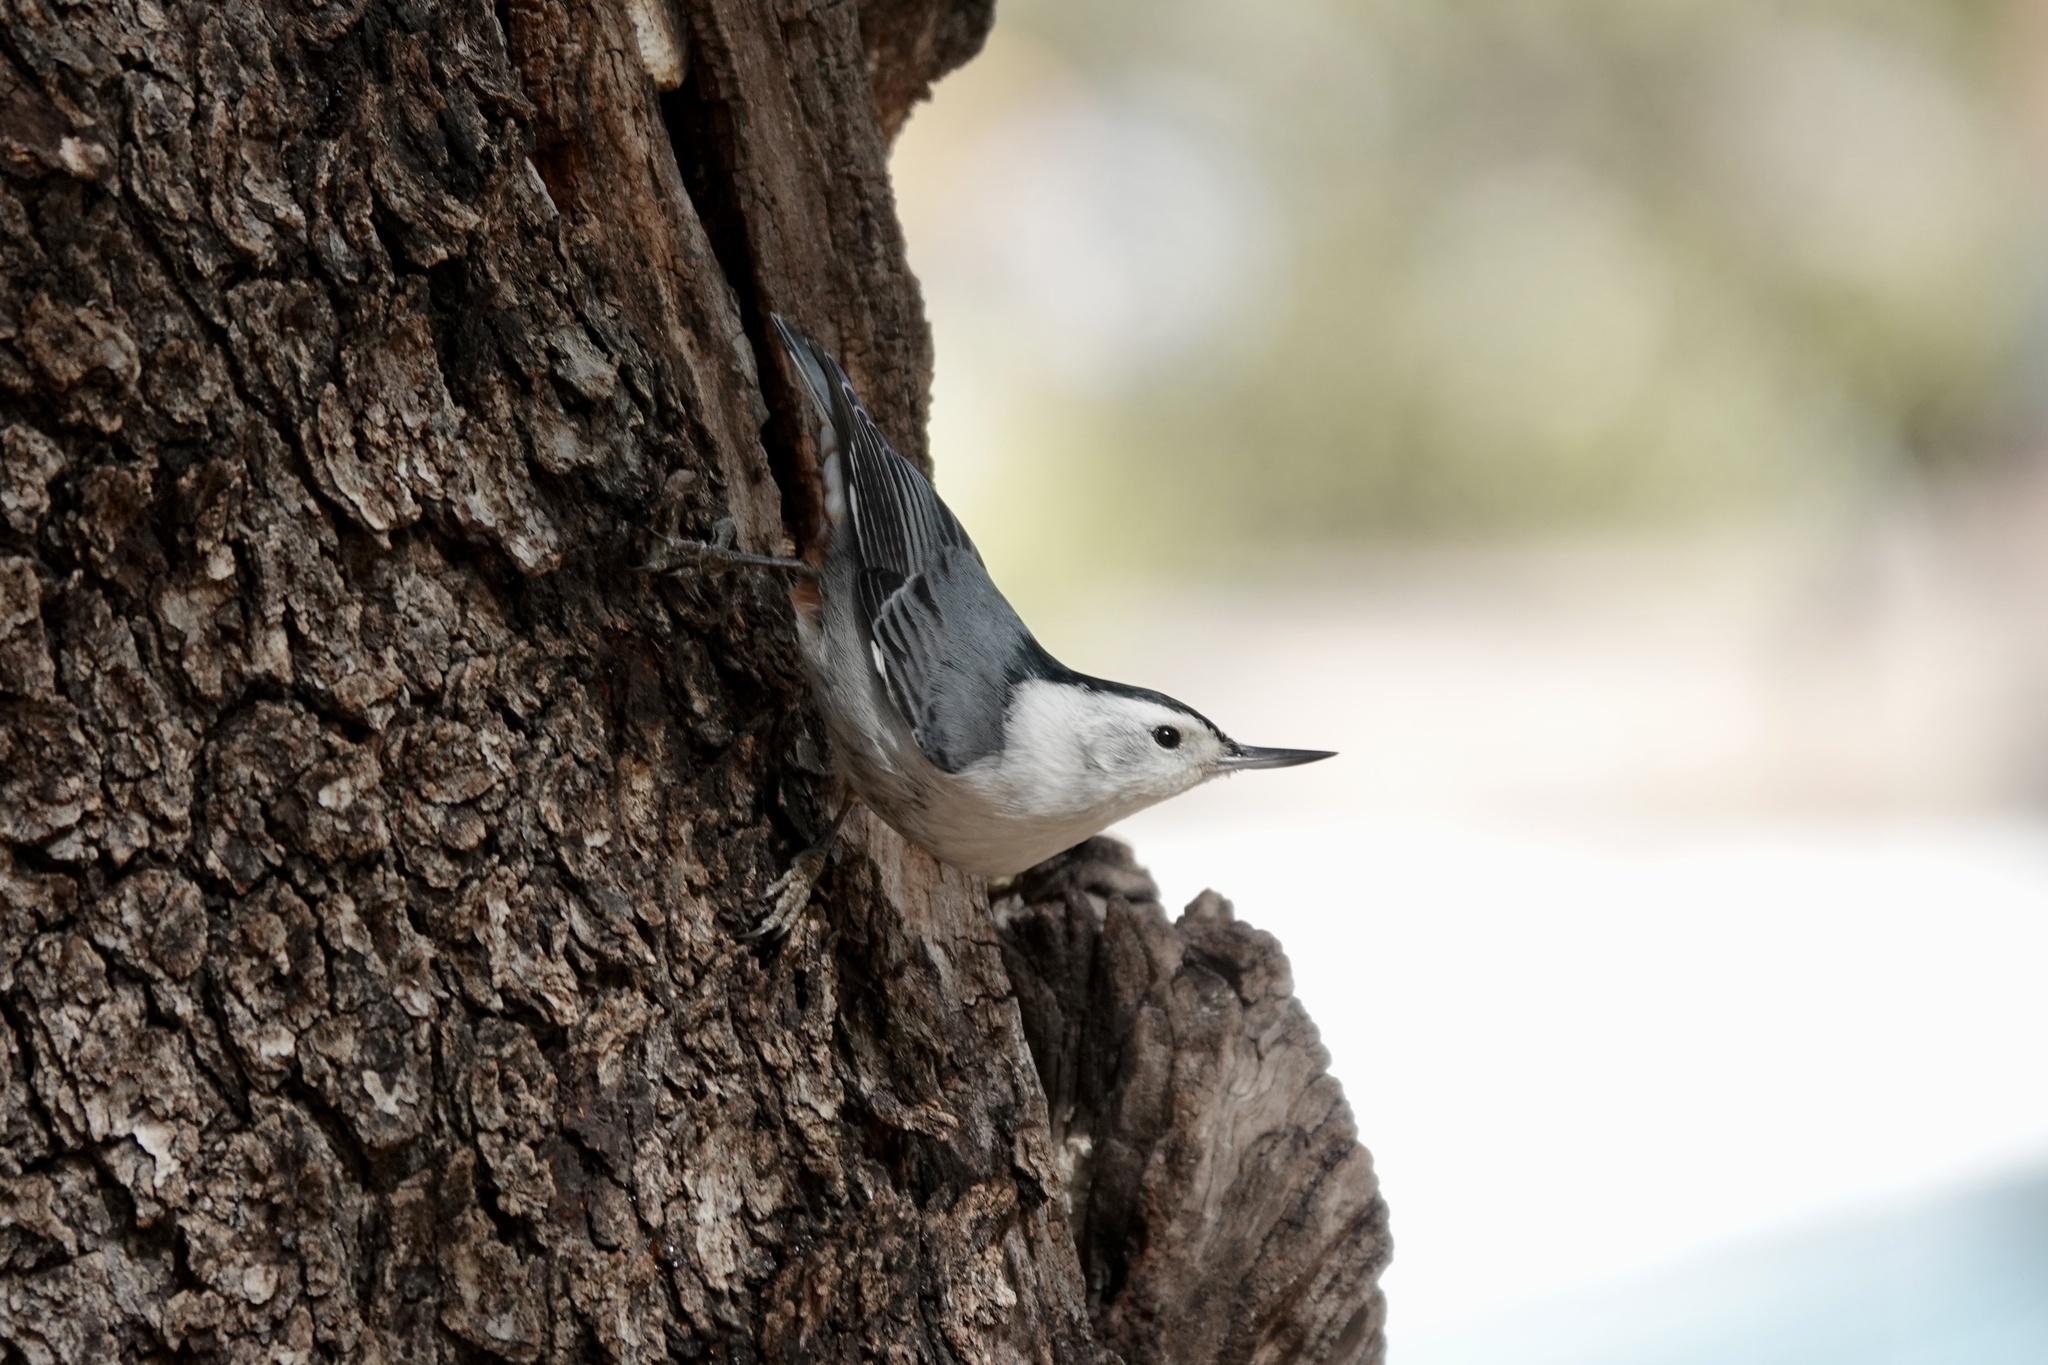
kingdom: Animalia
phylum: Chordata
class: Aves
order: Passeriformes
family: Sittidae
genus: Sitta
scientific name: Sitta carolinensis
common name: White-breasted nuthatch
